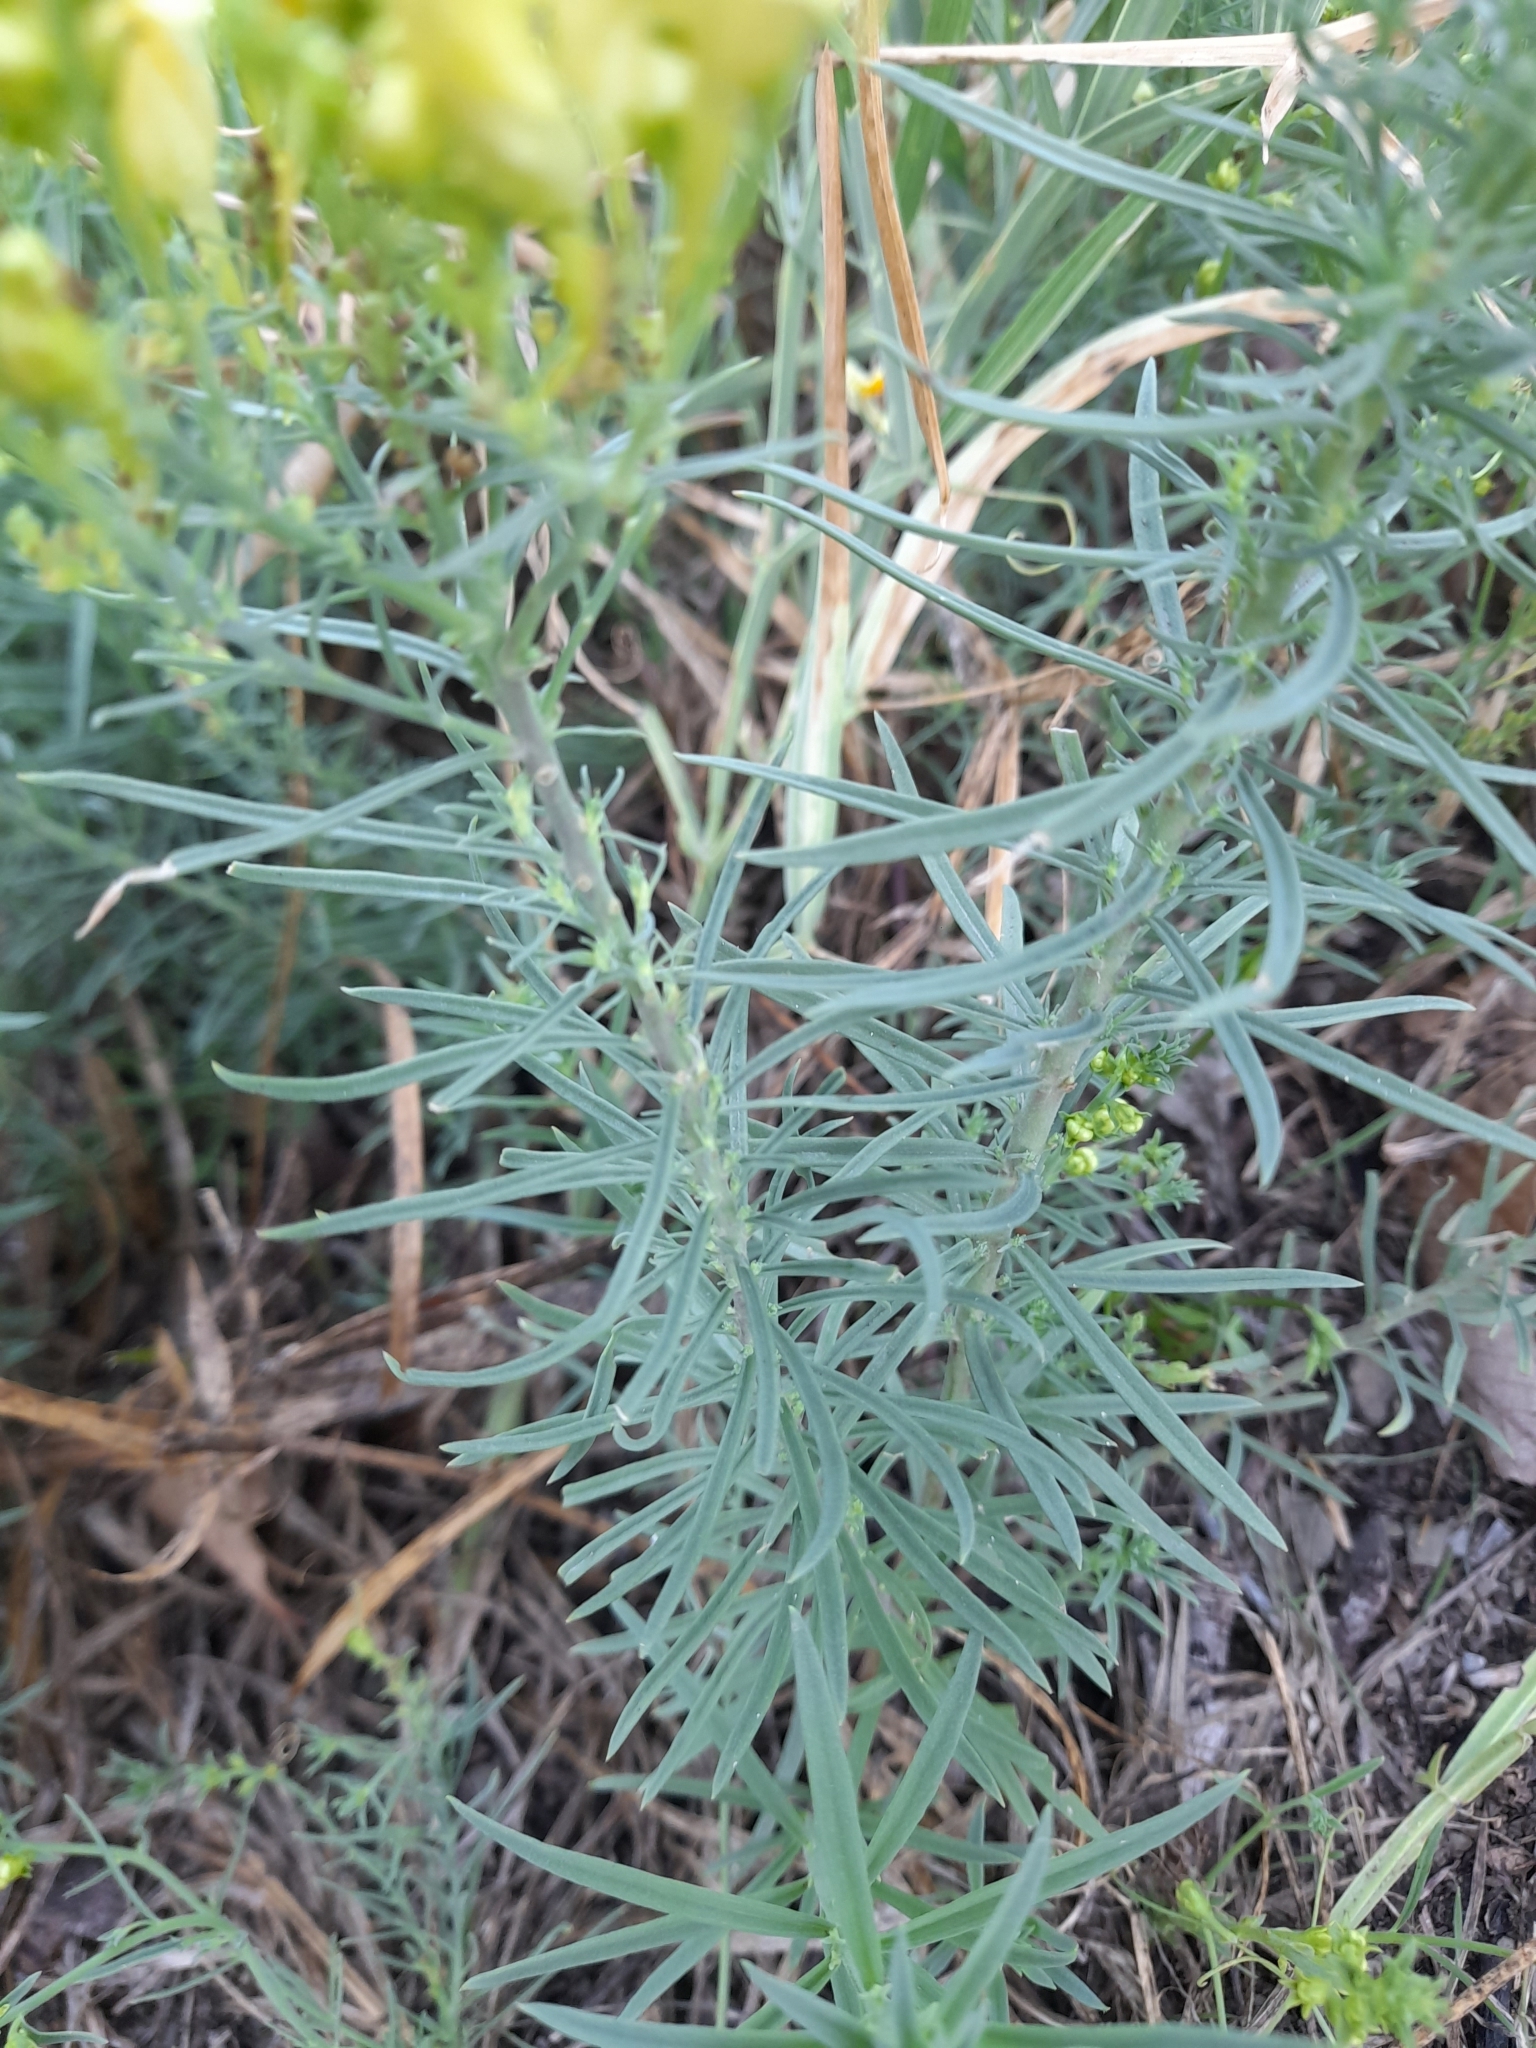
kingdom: Plantae
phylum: Tracheophyta
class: Magnoliopsida
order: Lamiales
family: Plantaginaceae
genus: Linaria
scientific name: Linaria vulgaris
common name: Butter and eggs
